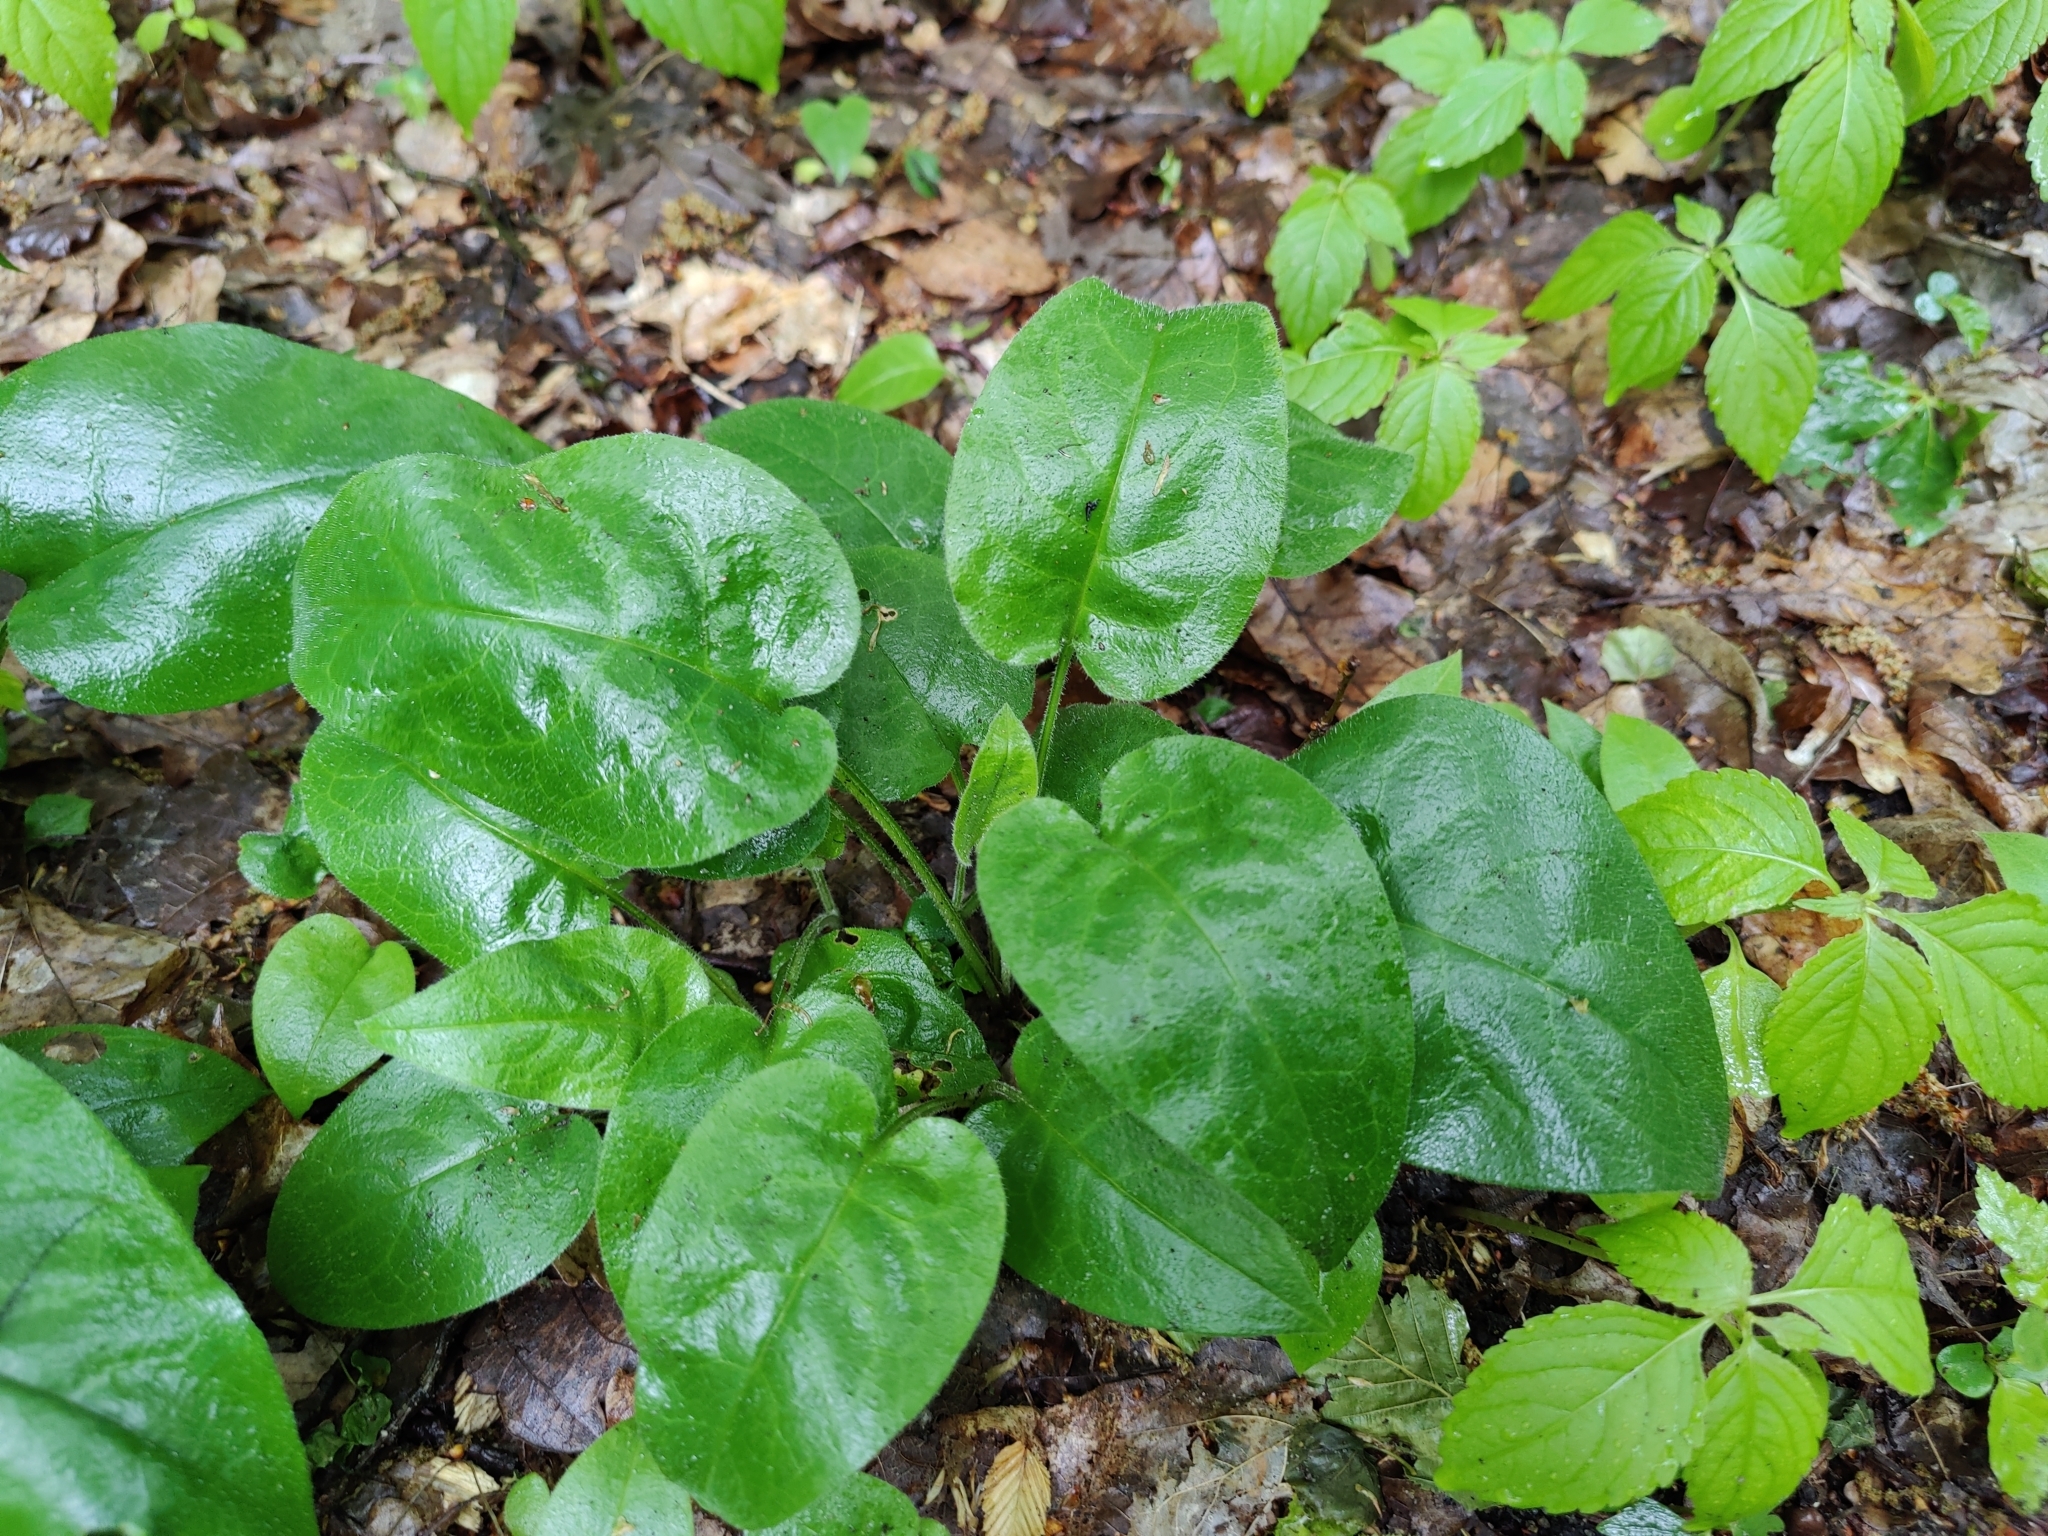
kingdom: Plantae
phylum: Tracheophyta
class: Magnoliopsida
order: Boraginales
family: Boraginaceae
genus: Pulmonaria
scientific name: Pulmonaria obscura
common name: Suffolk lungwort
